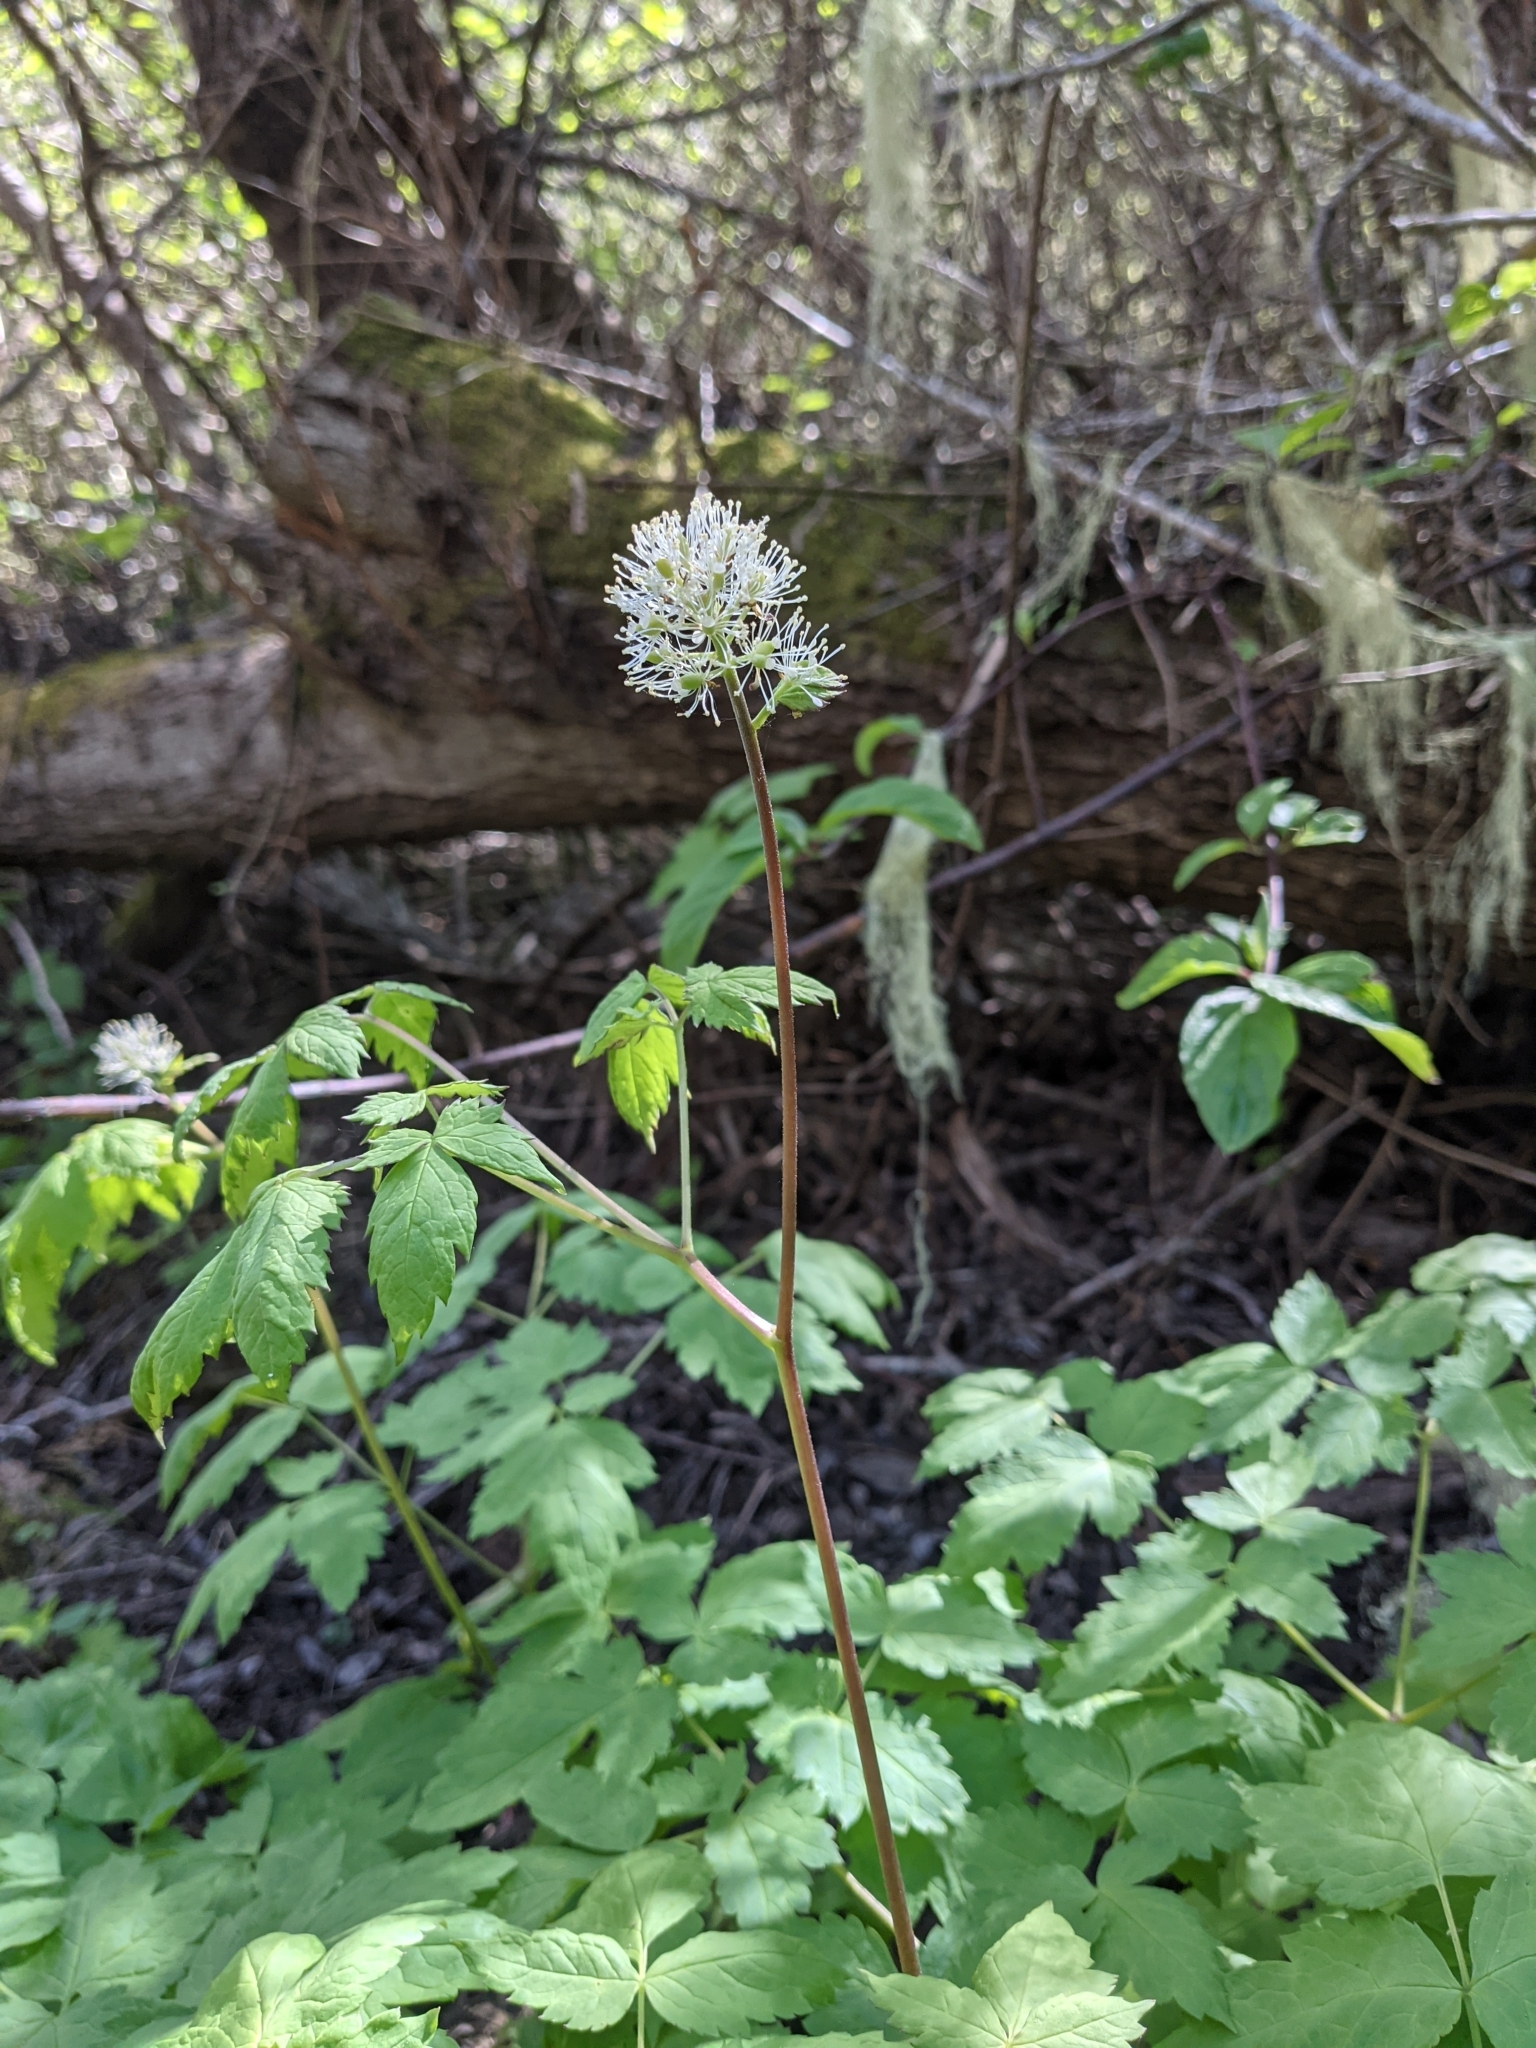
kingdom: Plantae
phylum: Tracheophyta
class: Magnoliopsida
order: Ranunculales
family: Ranunculaceae
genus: Actaea
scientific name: Actaea rubra
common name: Red baneberry
